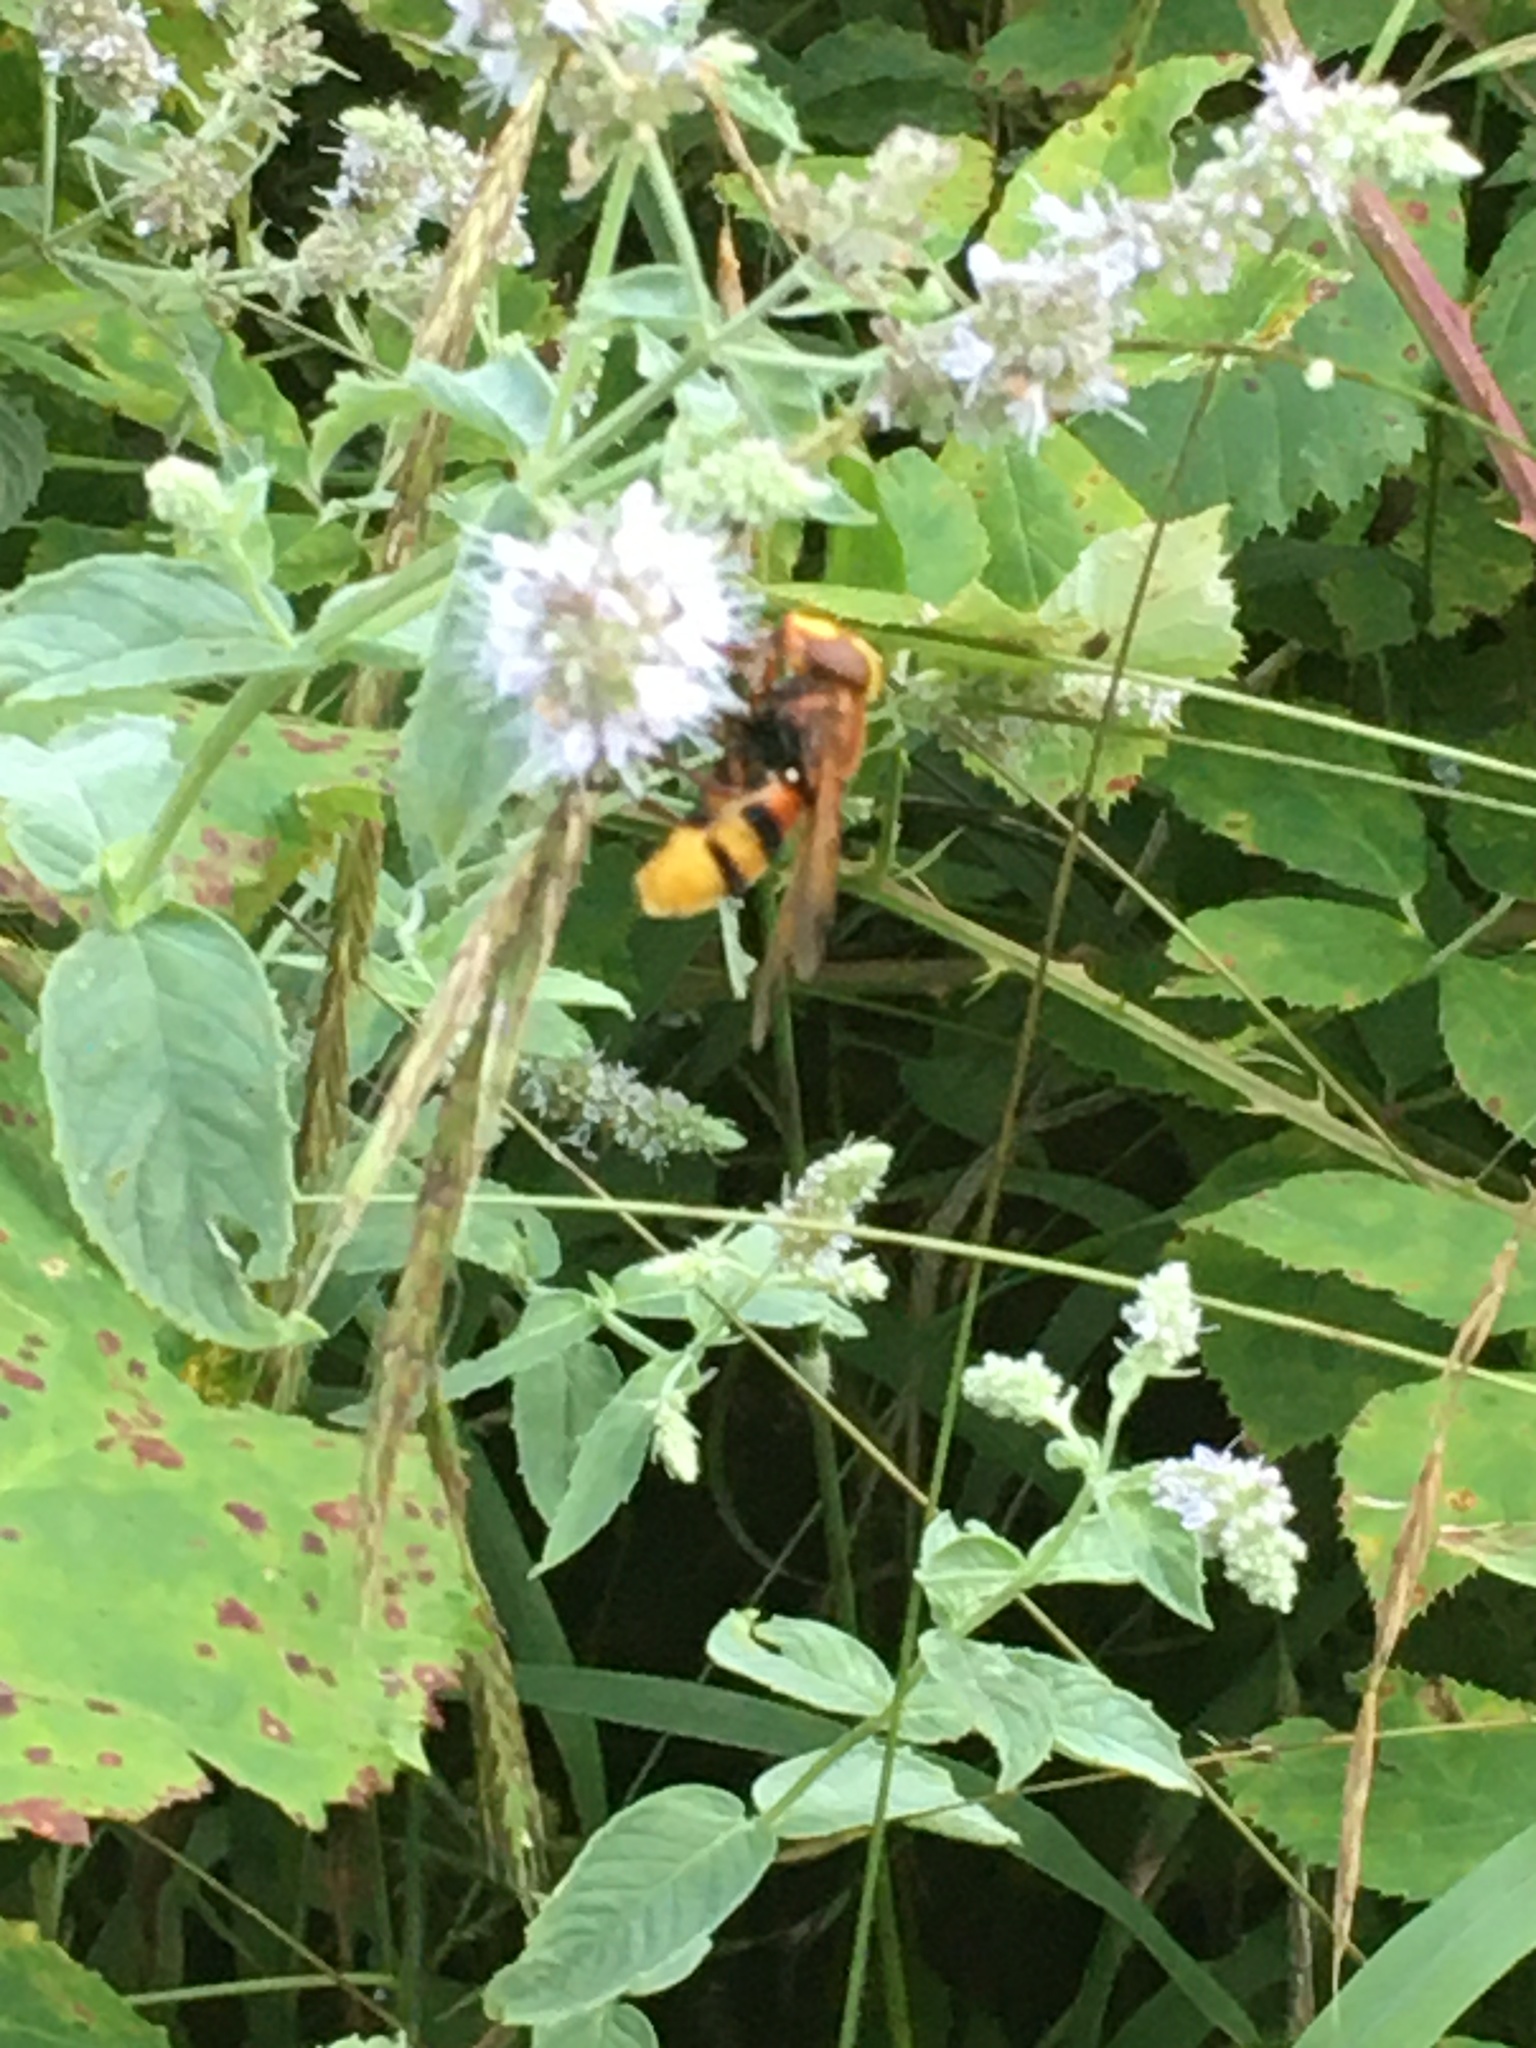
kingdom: Animalia
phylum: Arthropoda
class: Insecta
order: Diptera
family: Syrphidae
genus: Volucella
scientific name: Volucella zonaria
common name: Hornet hoverfly
